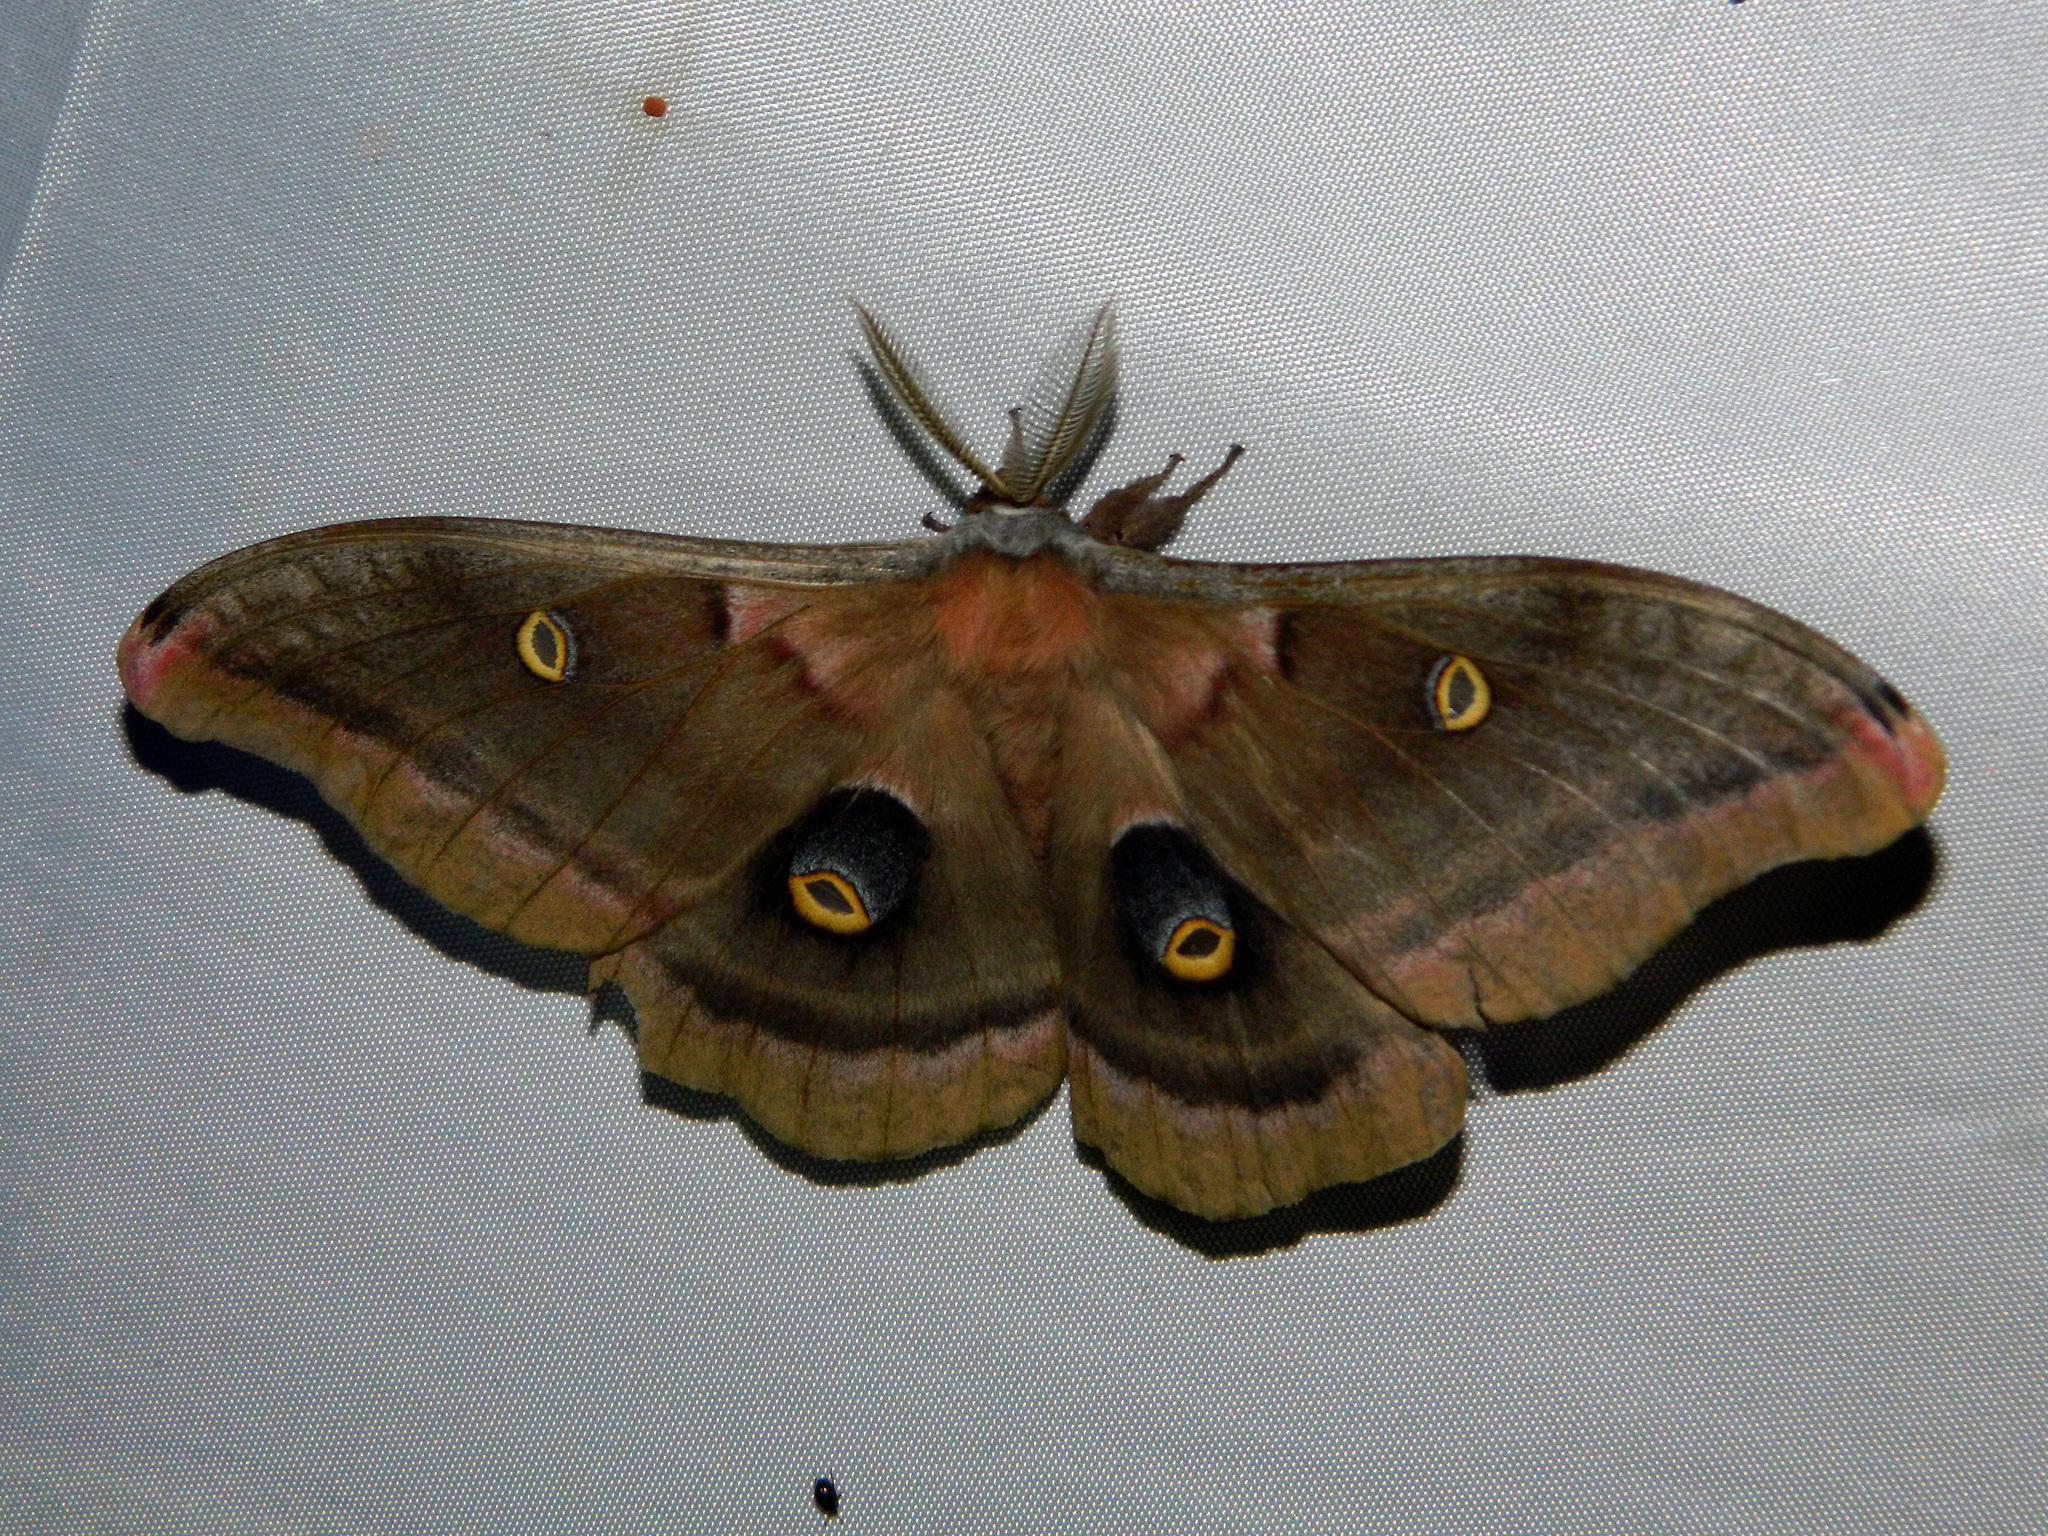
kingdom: Animalia
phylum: Arthropoda
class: Insecta
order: Lepidoptera
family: Saturniidae
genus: Antheraea
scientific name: Antheraea polyphemus
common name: Polyphemus moth
